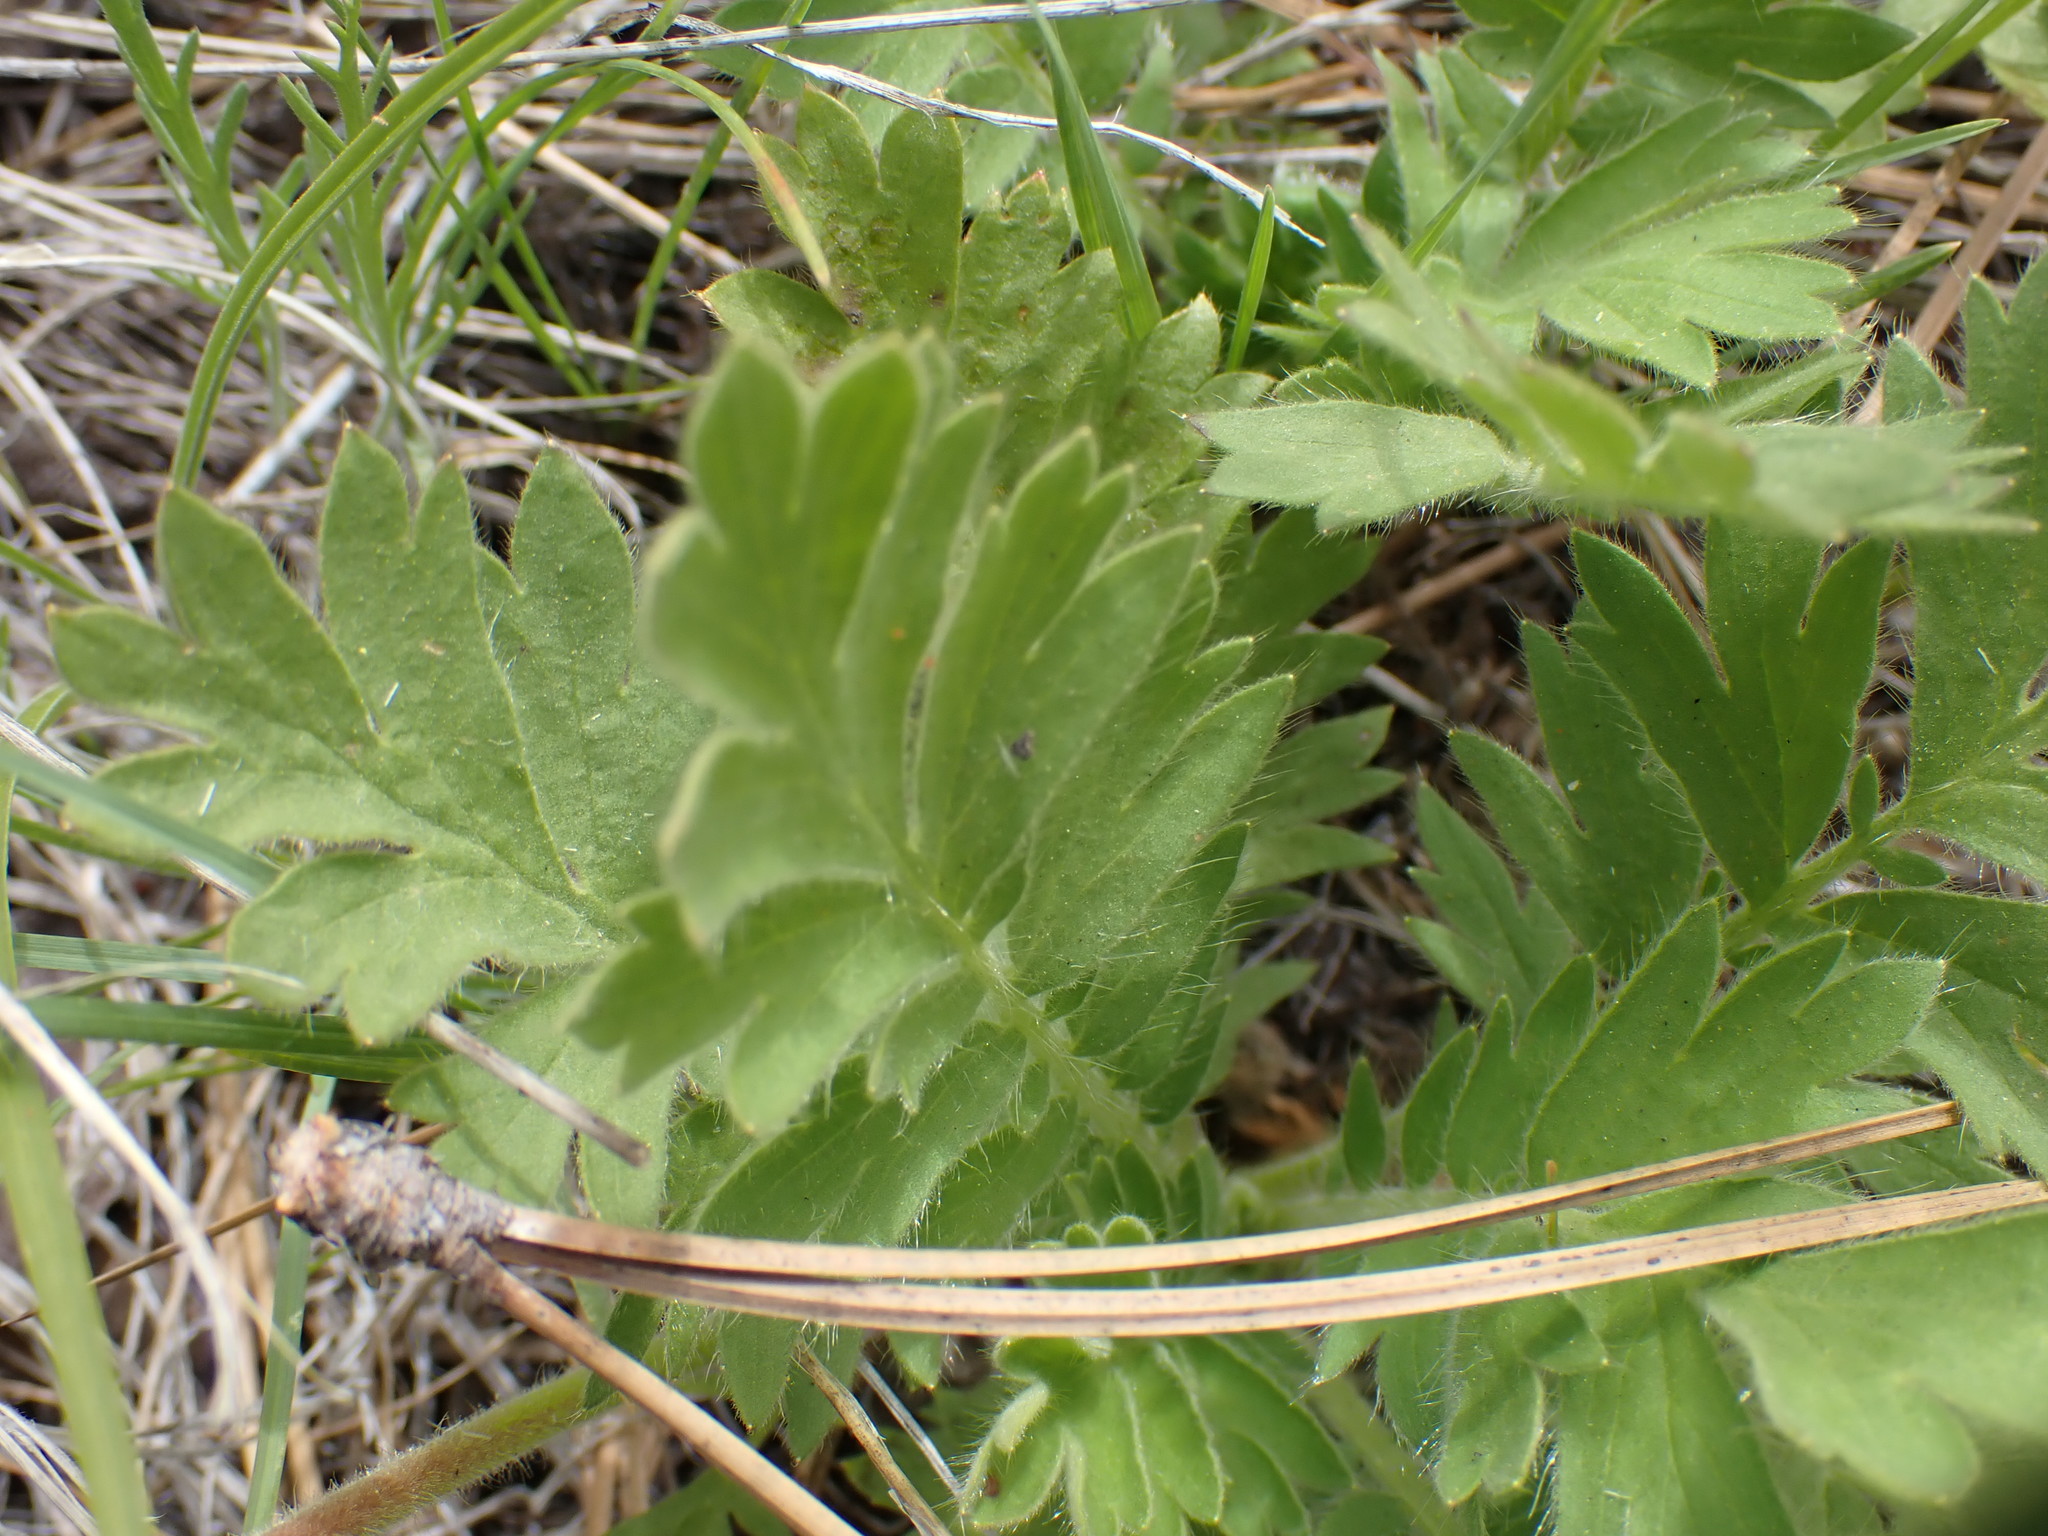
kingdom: Plantae
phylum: Tracheophyta
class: Magnoliopsida
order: Rosales
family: Rosaceae
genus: Geum
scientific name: Geum triflorum
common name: Old man's whiskers
